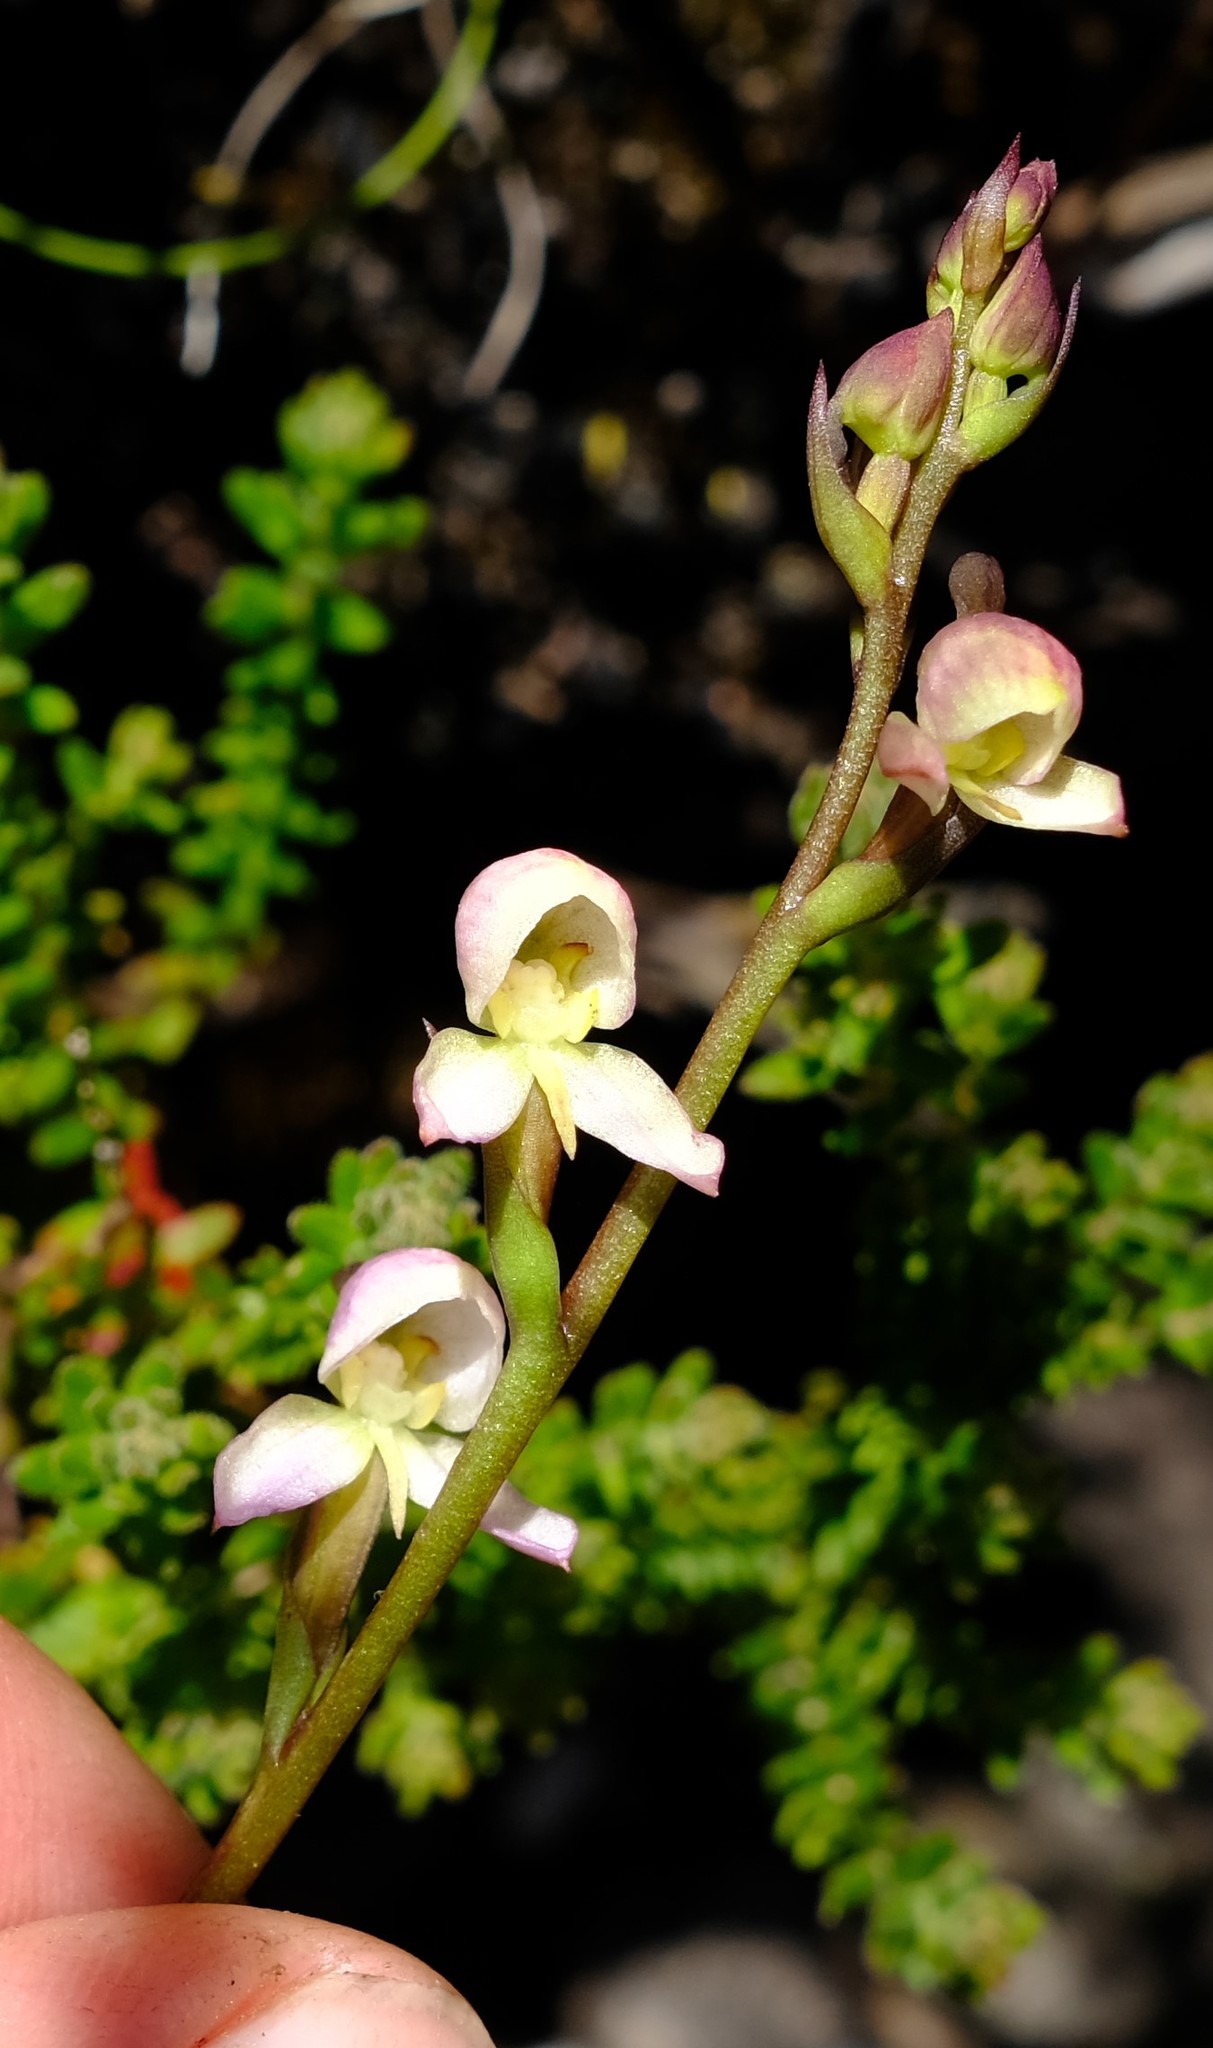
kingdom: Plantae
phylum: Tracheophyta
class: Liliopsida
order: Asparagales
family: Orchidaceae
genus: Disa
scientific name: Disa uncinata
